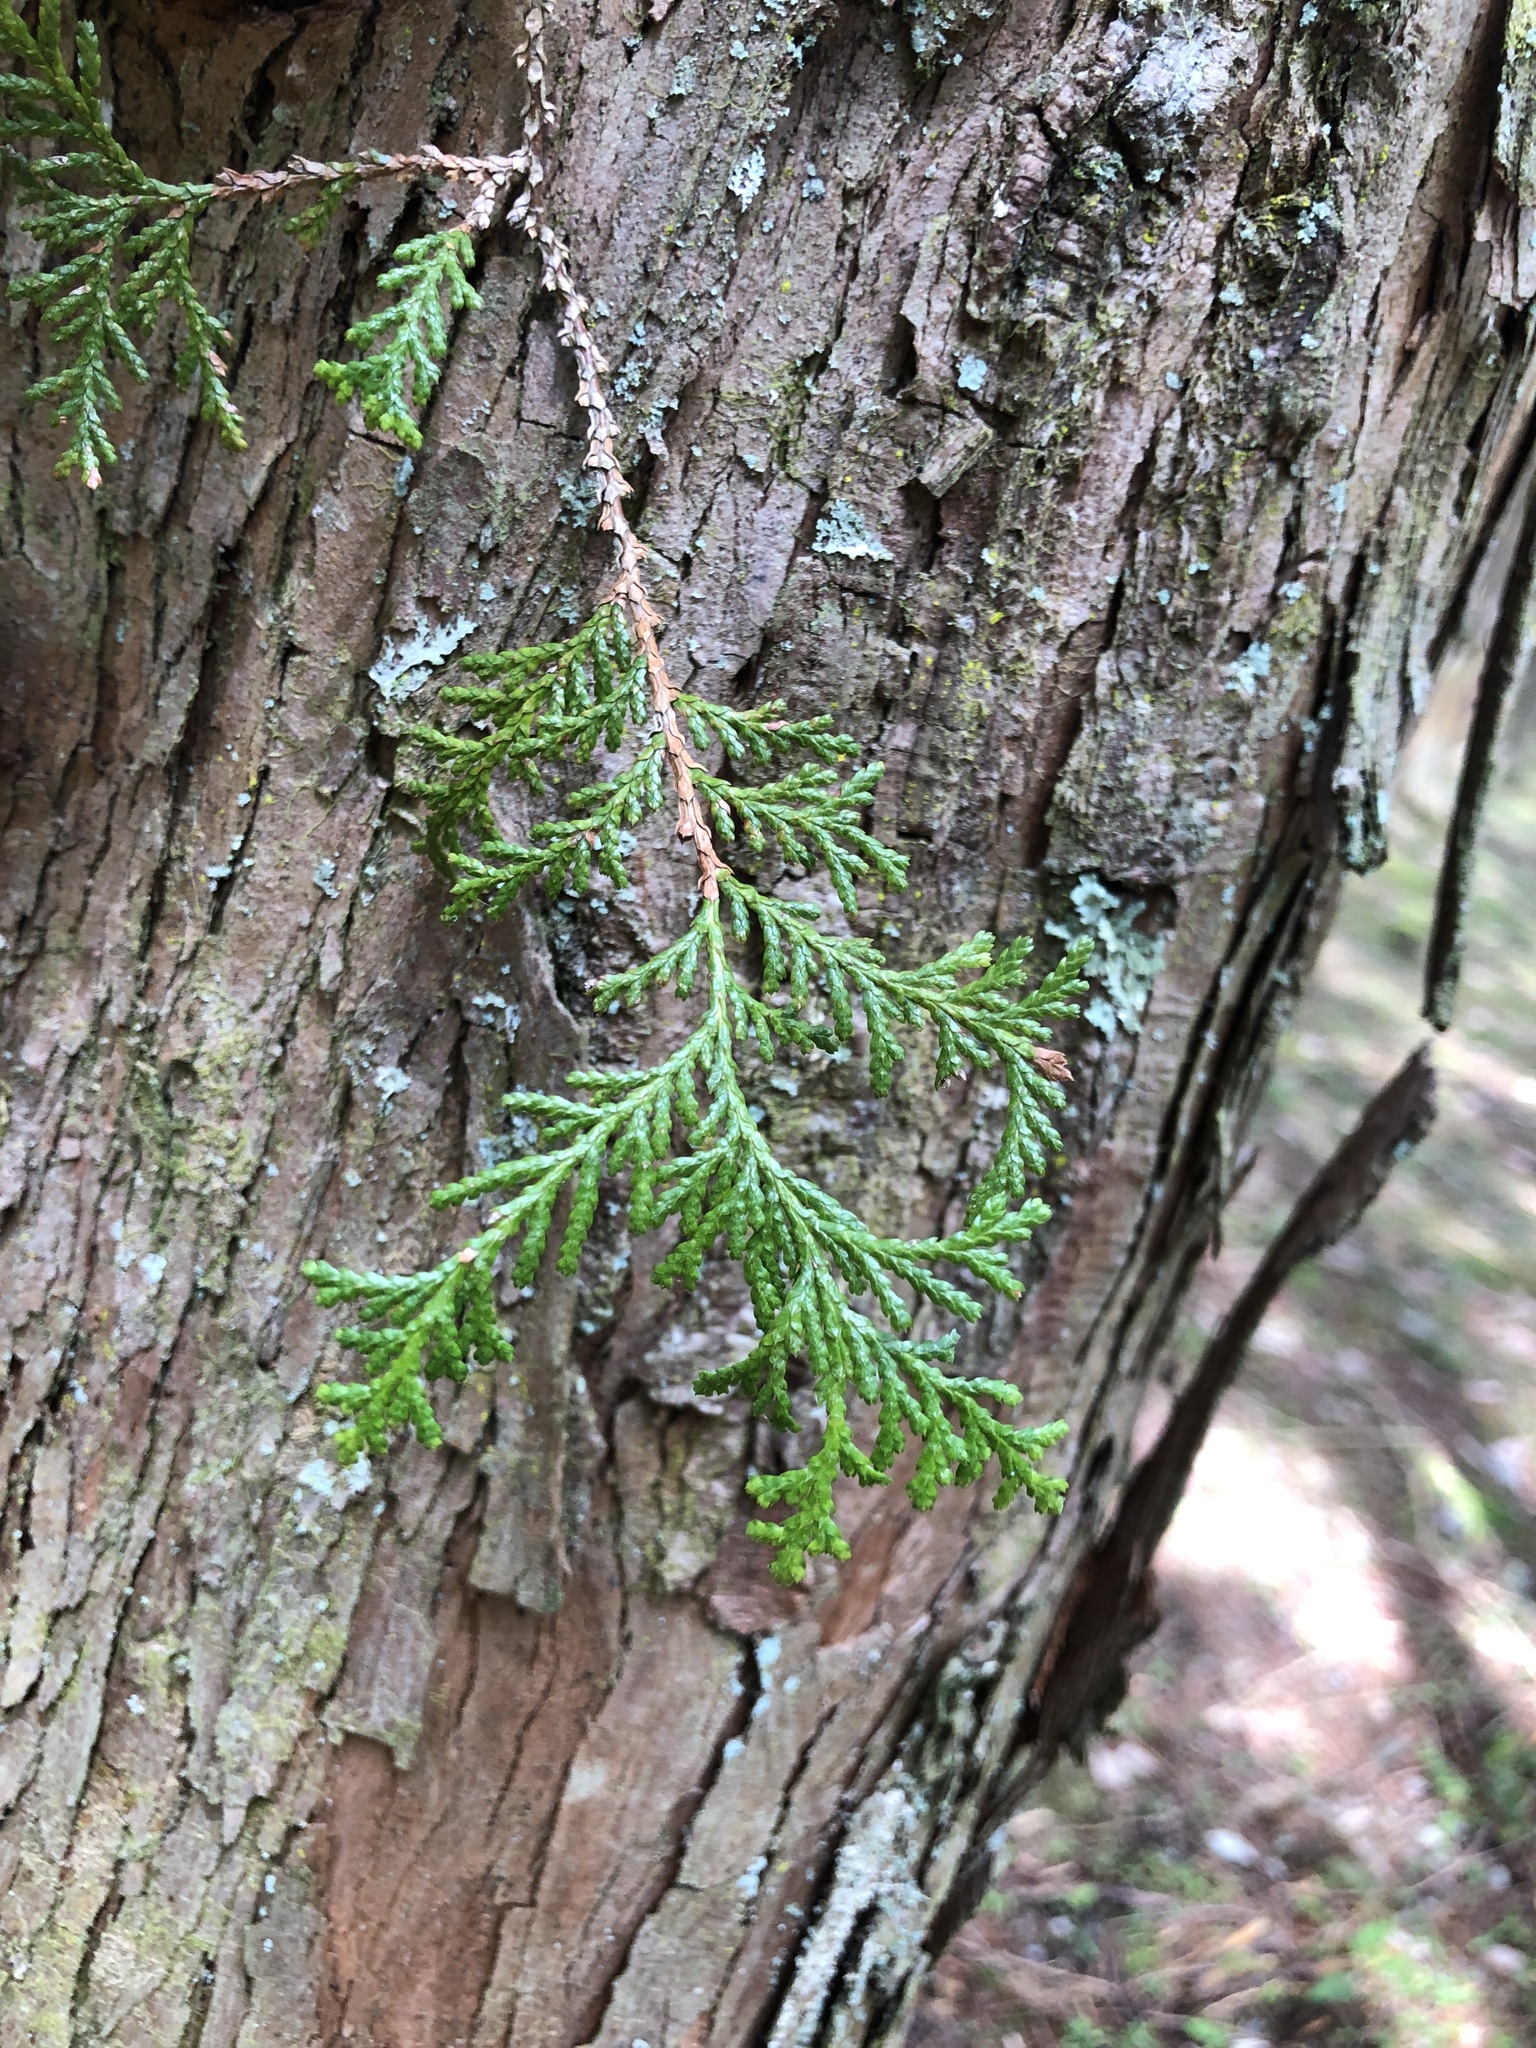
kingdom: Plantae
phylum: Tracheophyta
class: Pinopsida
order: Pinales
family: Cupressaceae
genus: Chamaecyparis
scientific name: Chamaecyparis formosensis
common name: Formosan cypress
